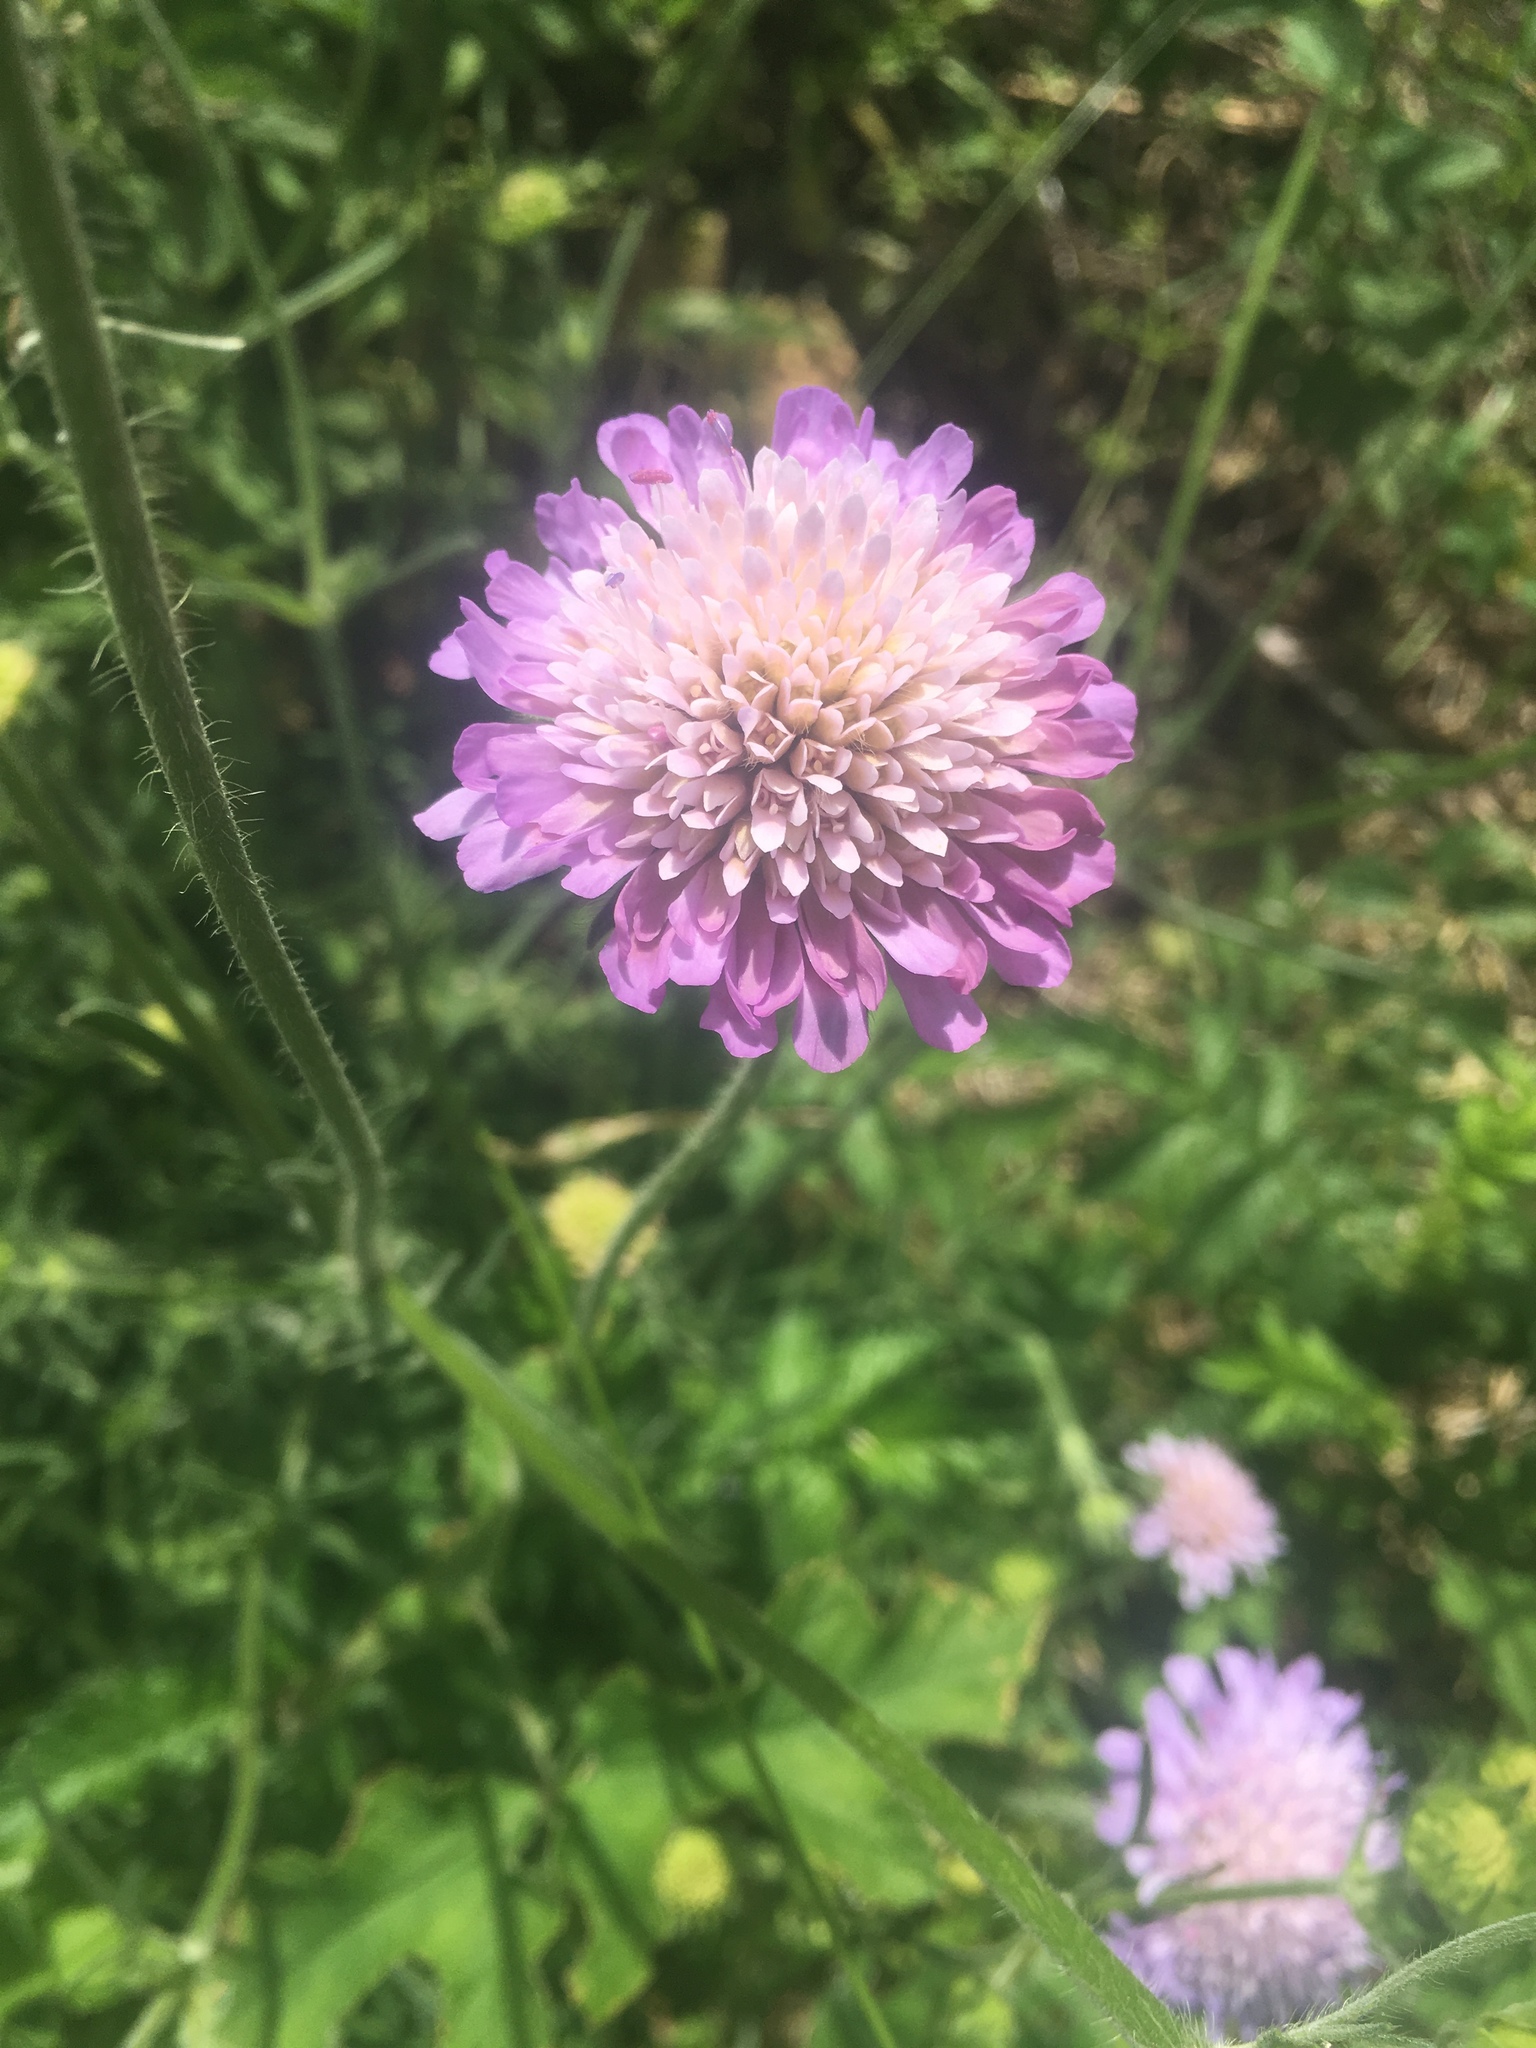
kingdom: Plantae
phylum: Tracheophyta
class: Magnoliopsida
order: Dipsacales
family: Caprifoliaceae
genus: Knautia
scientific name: Knautia arvensis
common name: Field scabiosa
